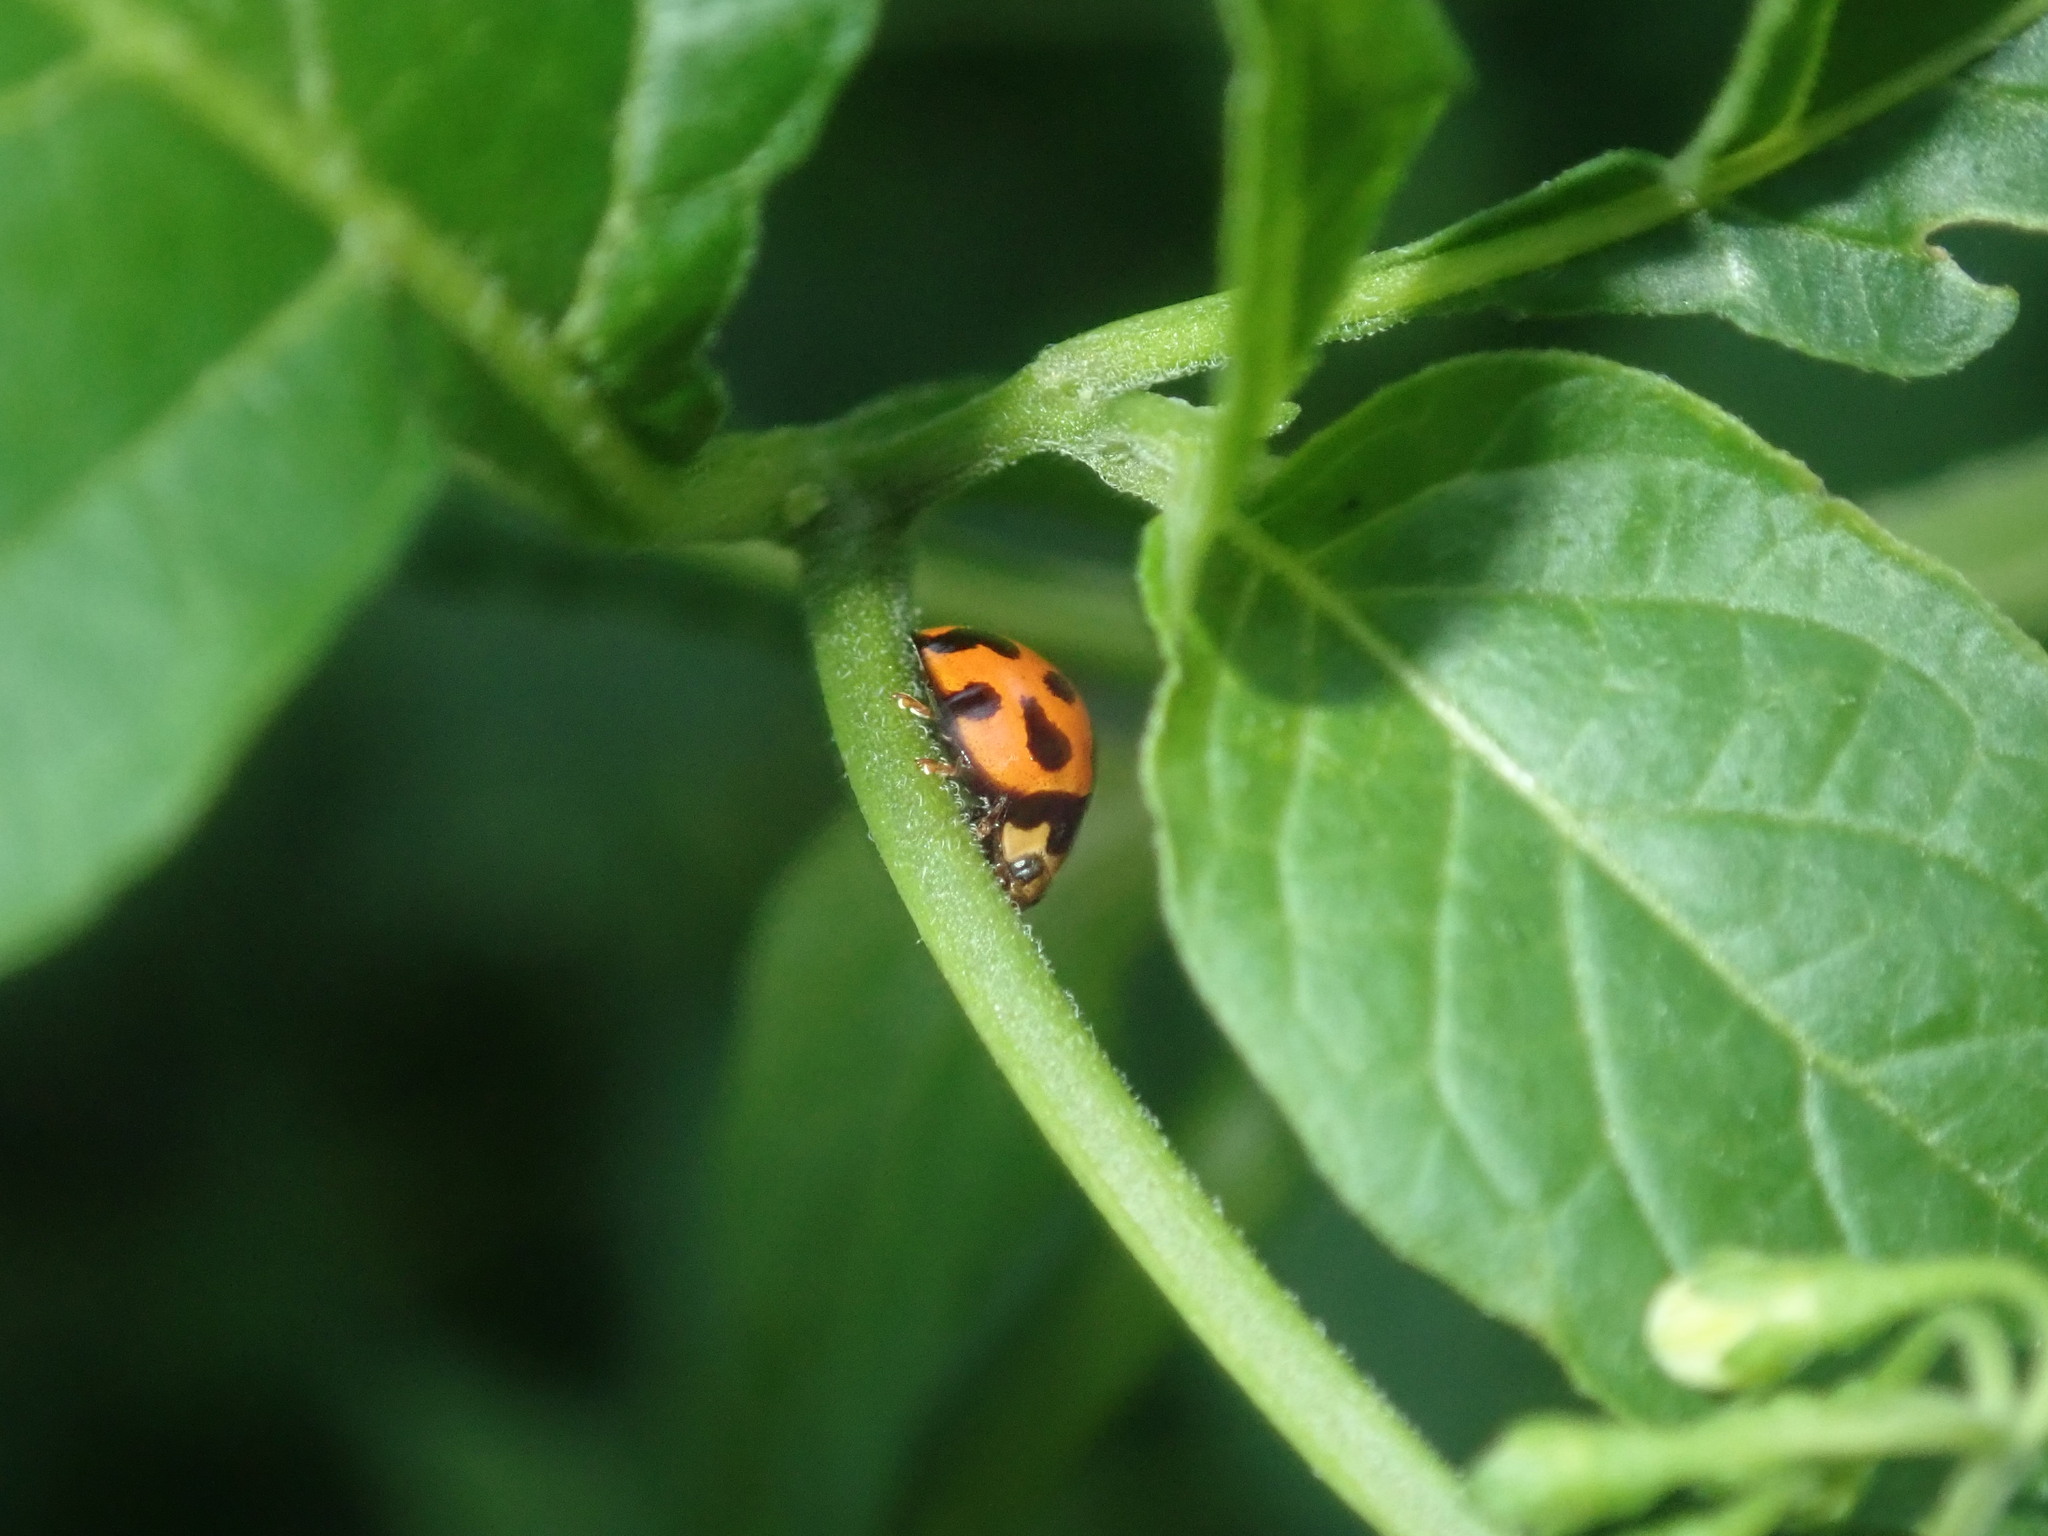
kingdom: Animalia
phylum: Arthropoda
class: Insecta
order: Coleoptera
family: Coccinellidae
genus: Coelophora
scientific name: Coelophora inaequalis
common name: Common australian lady beetle
